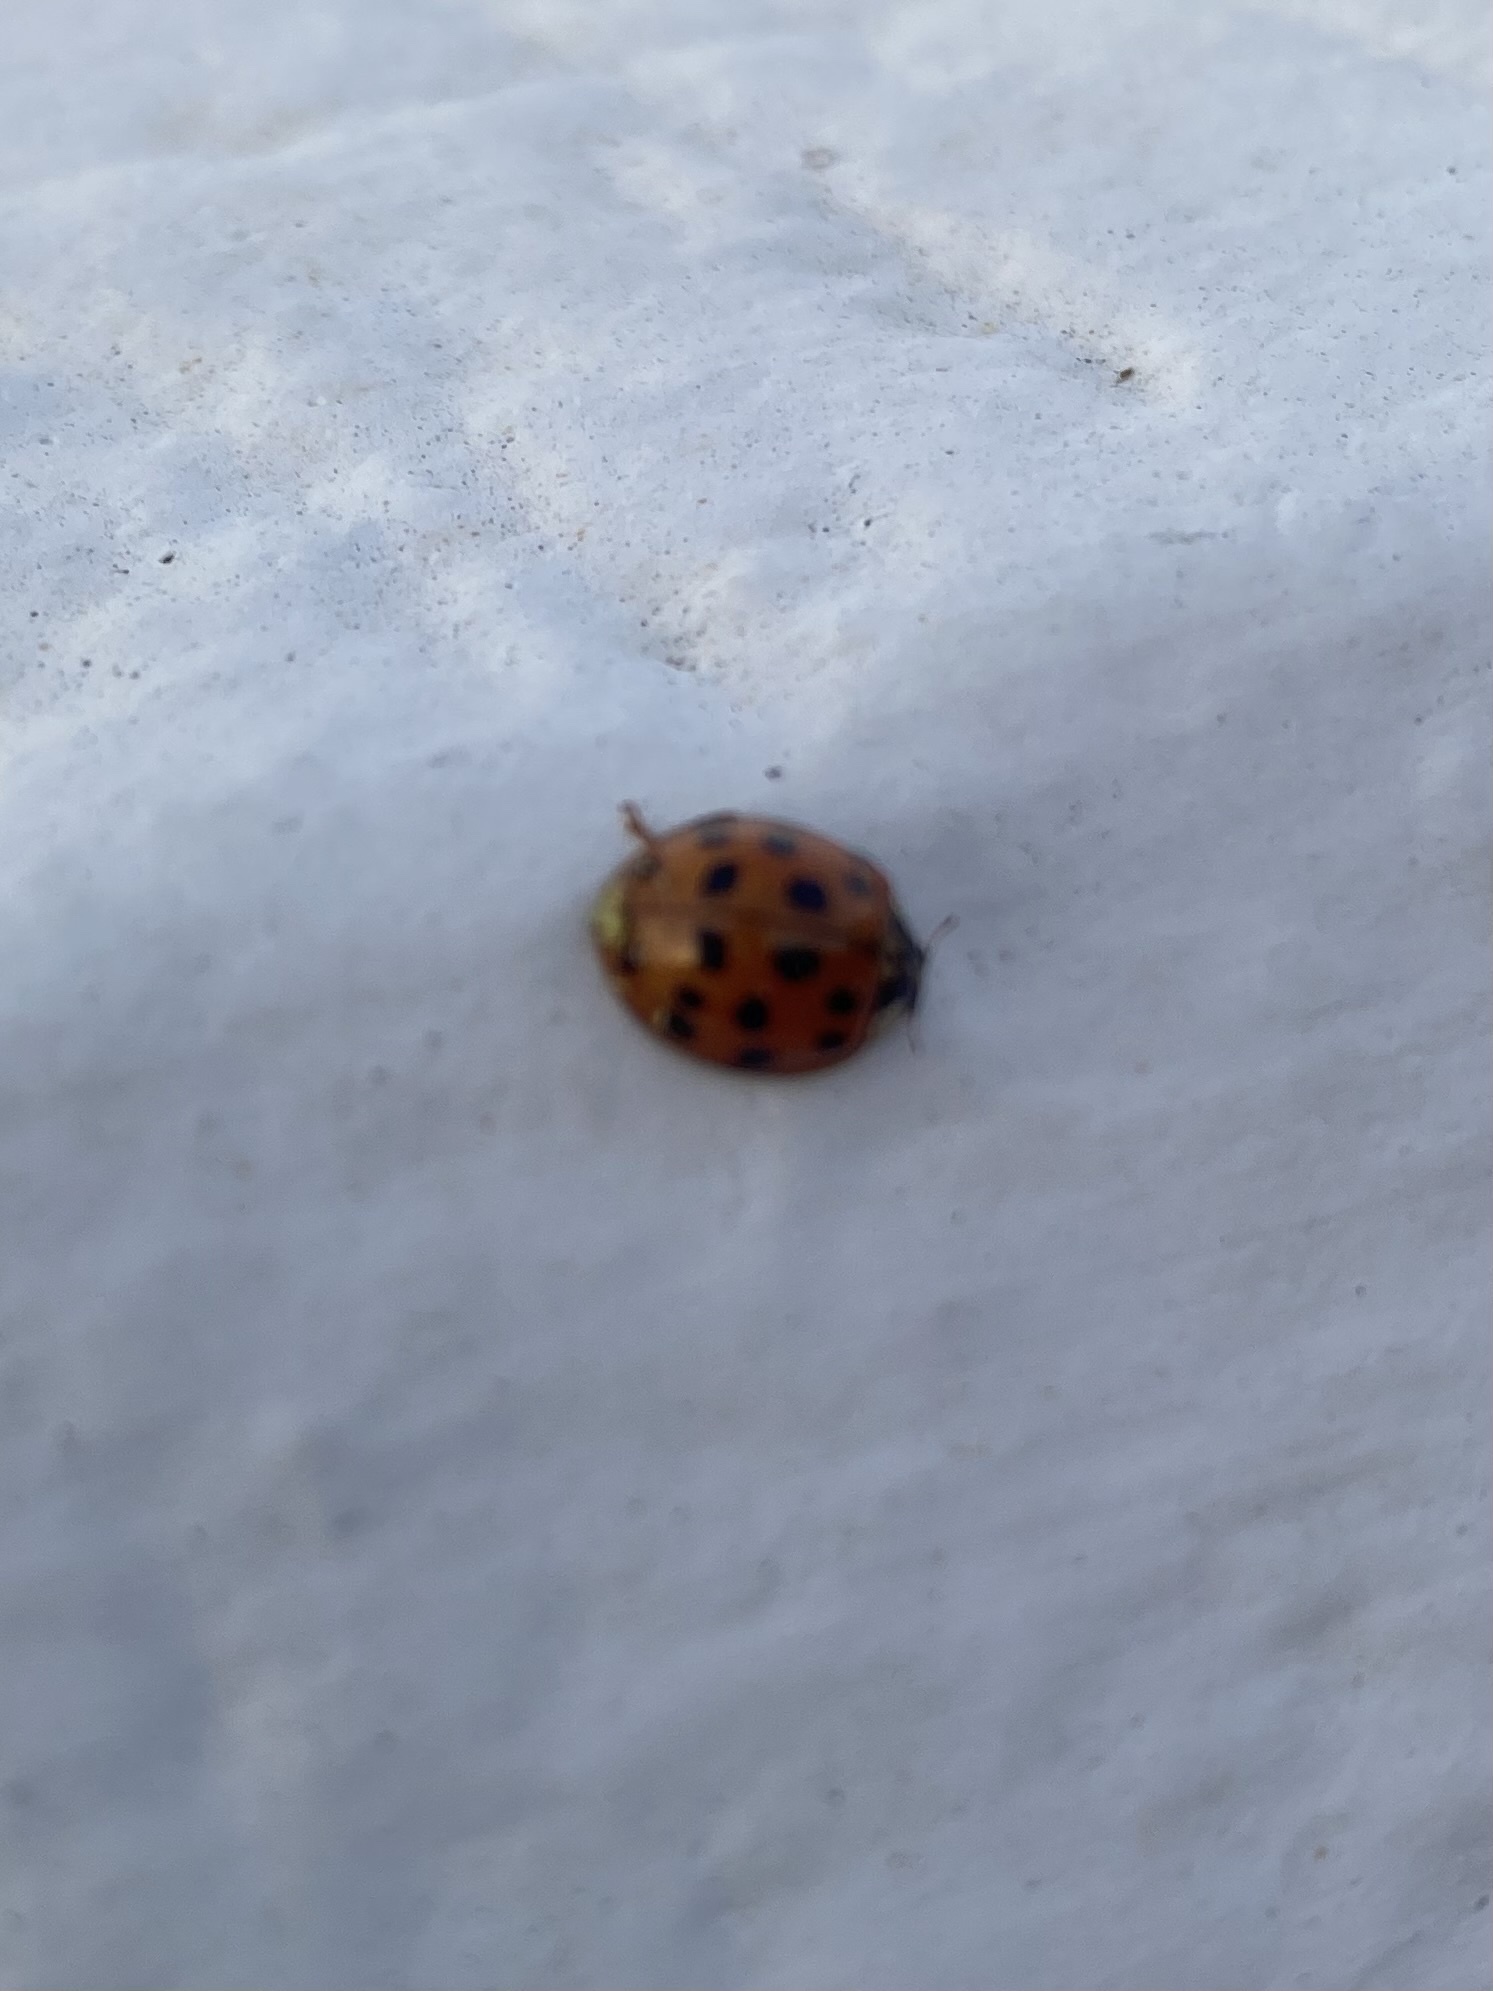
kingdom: Animalia
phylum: Arthropoda
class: Insecta
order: Coleoptera
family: Coccinellidae
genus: Harmonia
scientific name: Harmonia axyridis
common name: Harlequin ladybird
